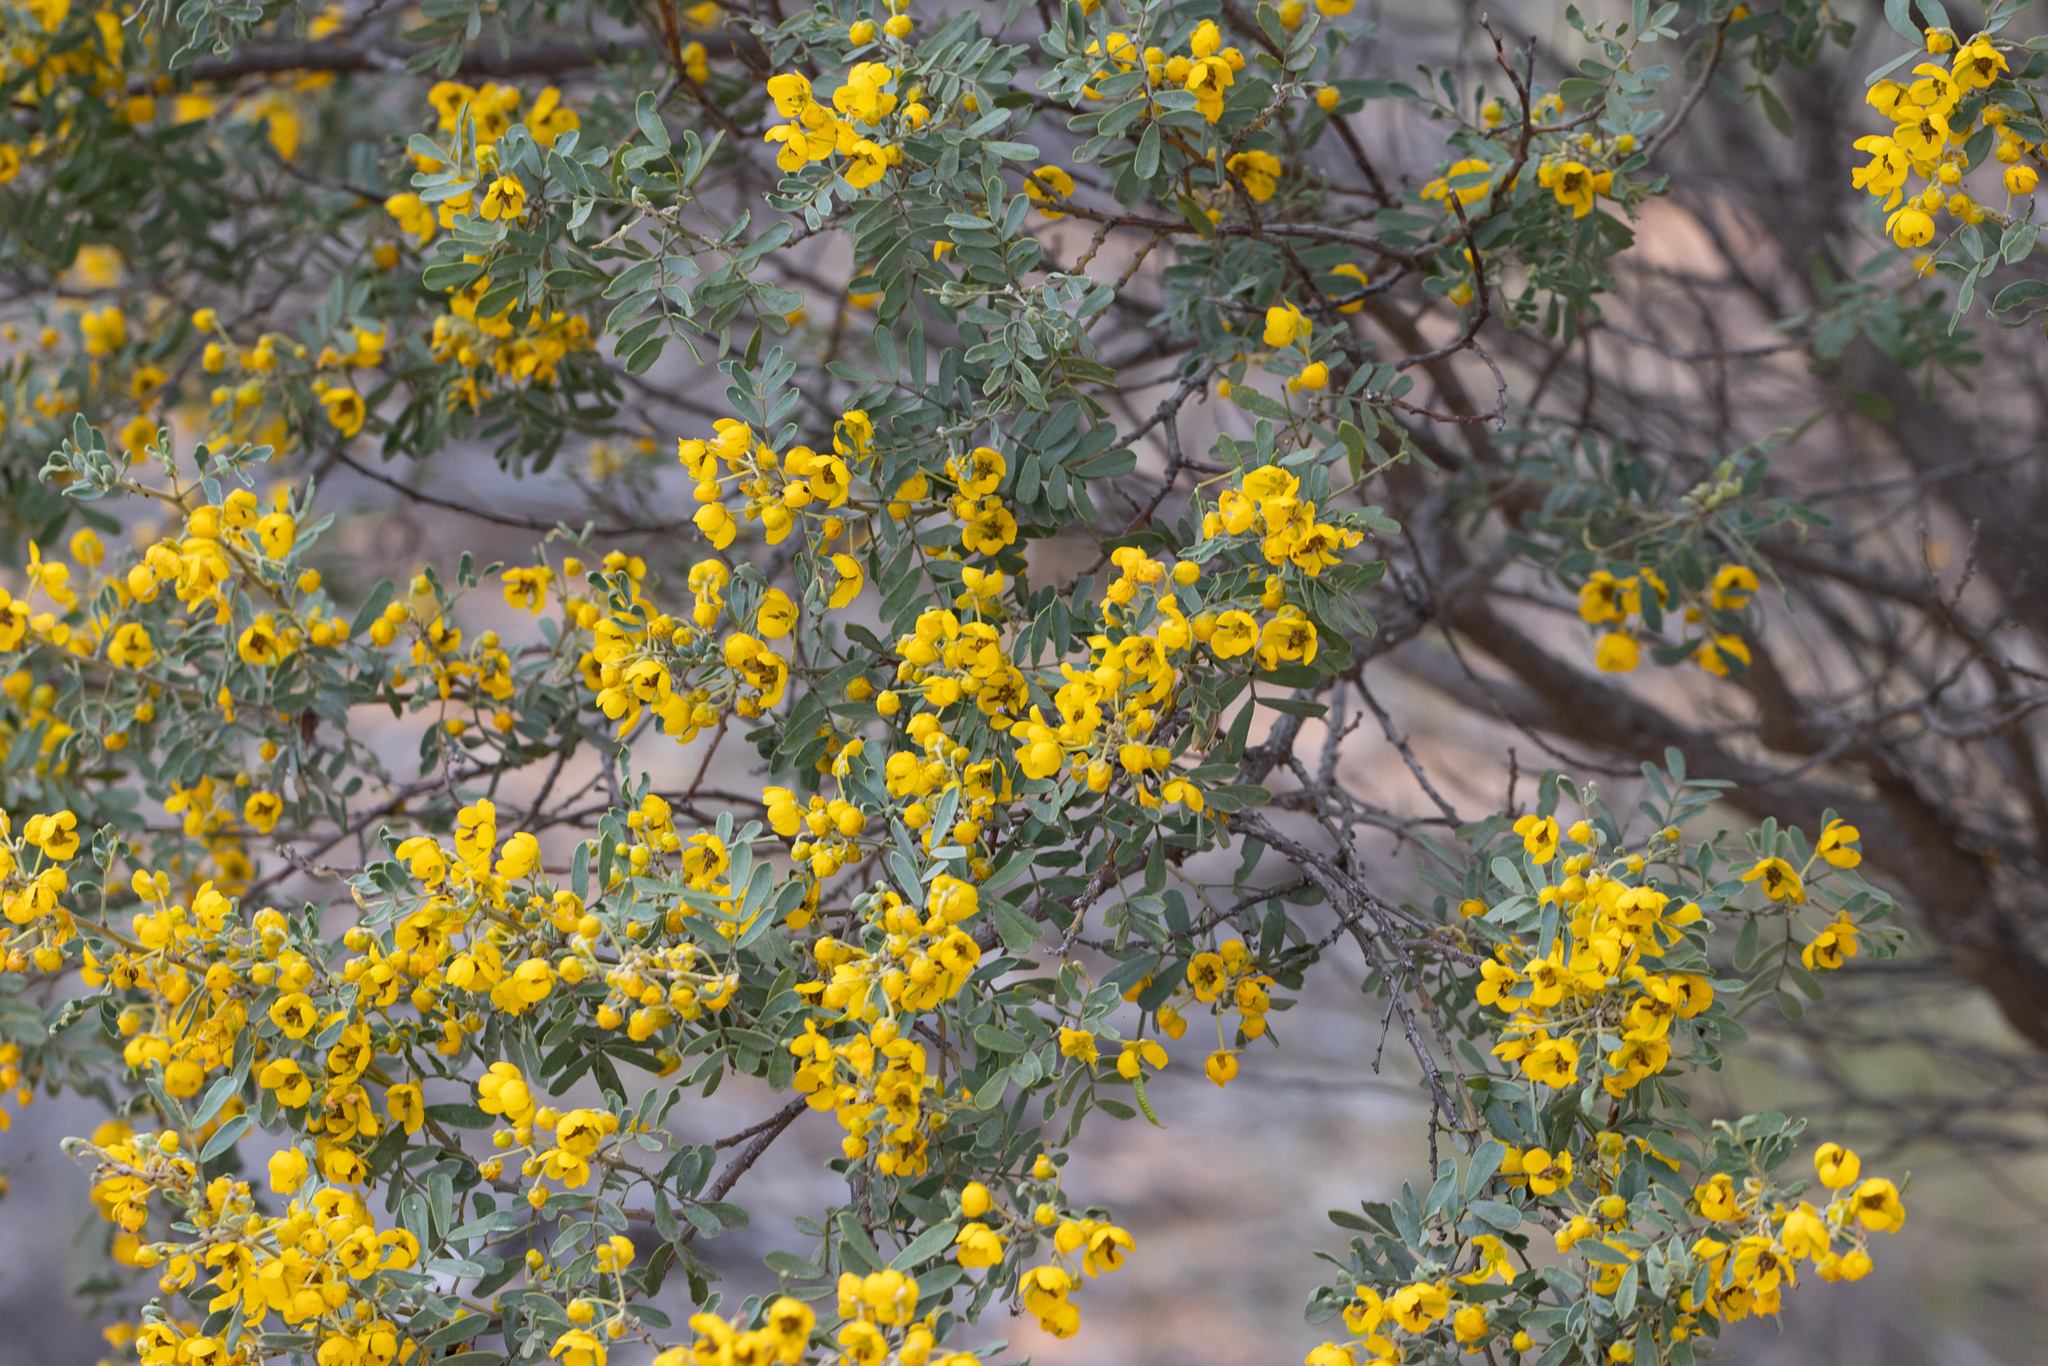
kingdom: Plantae
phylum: Tracheophyta
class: Magnoliopsida
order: Fabales
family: Fabaceae
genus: Senna
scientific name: Senna artemisioides
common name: Burnt-leaved acacia
